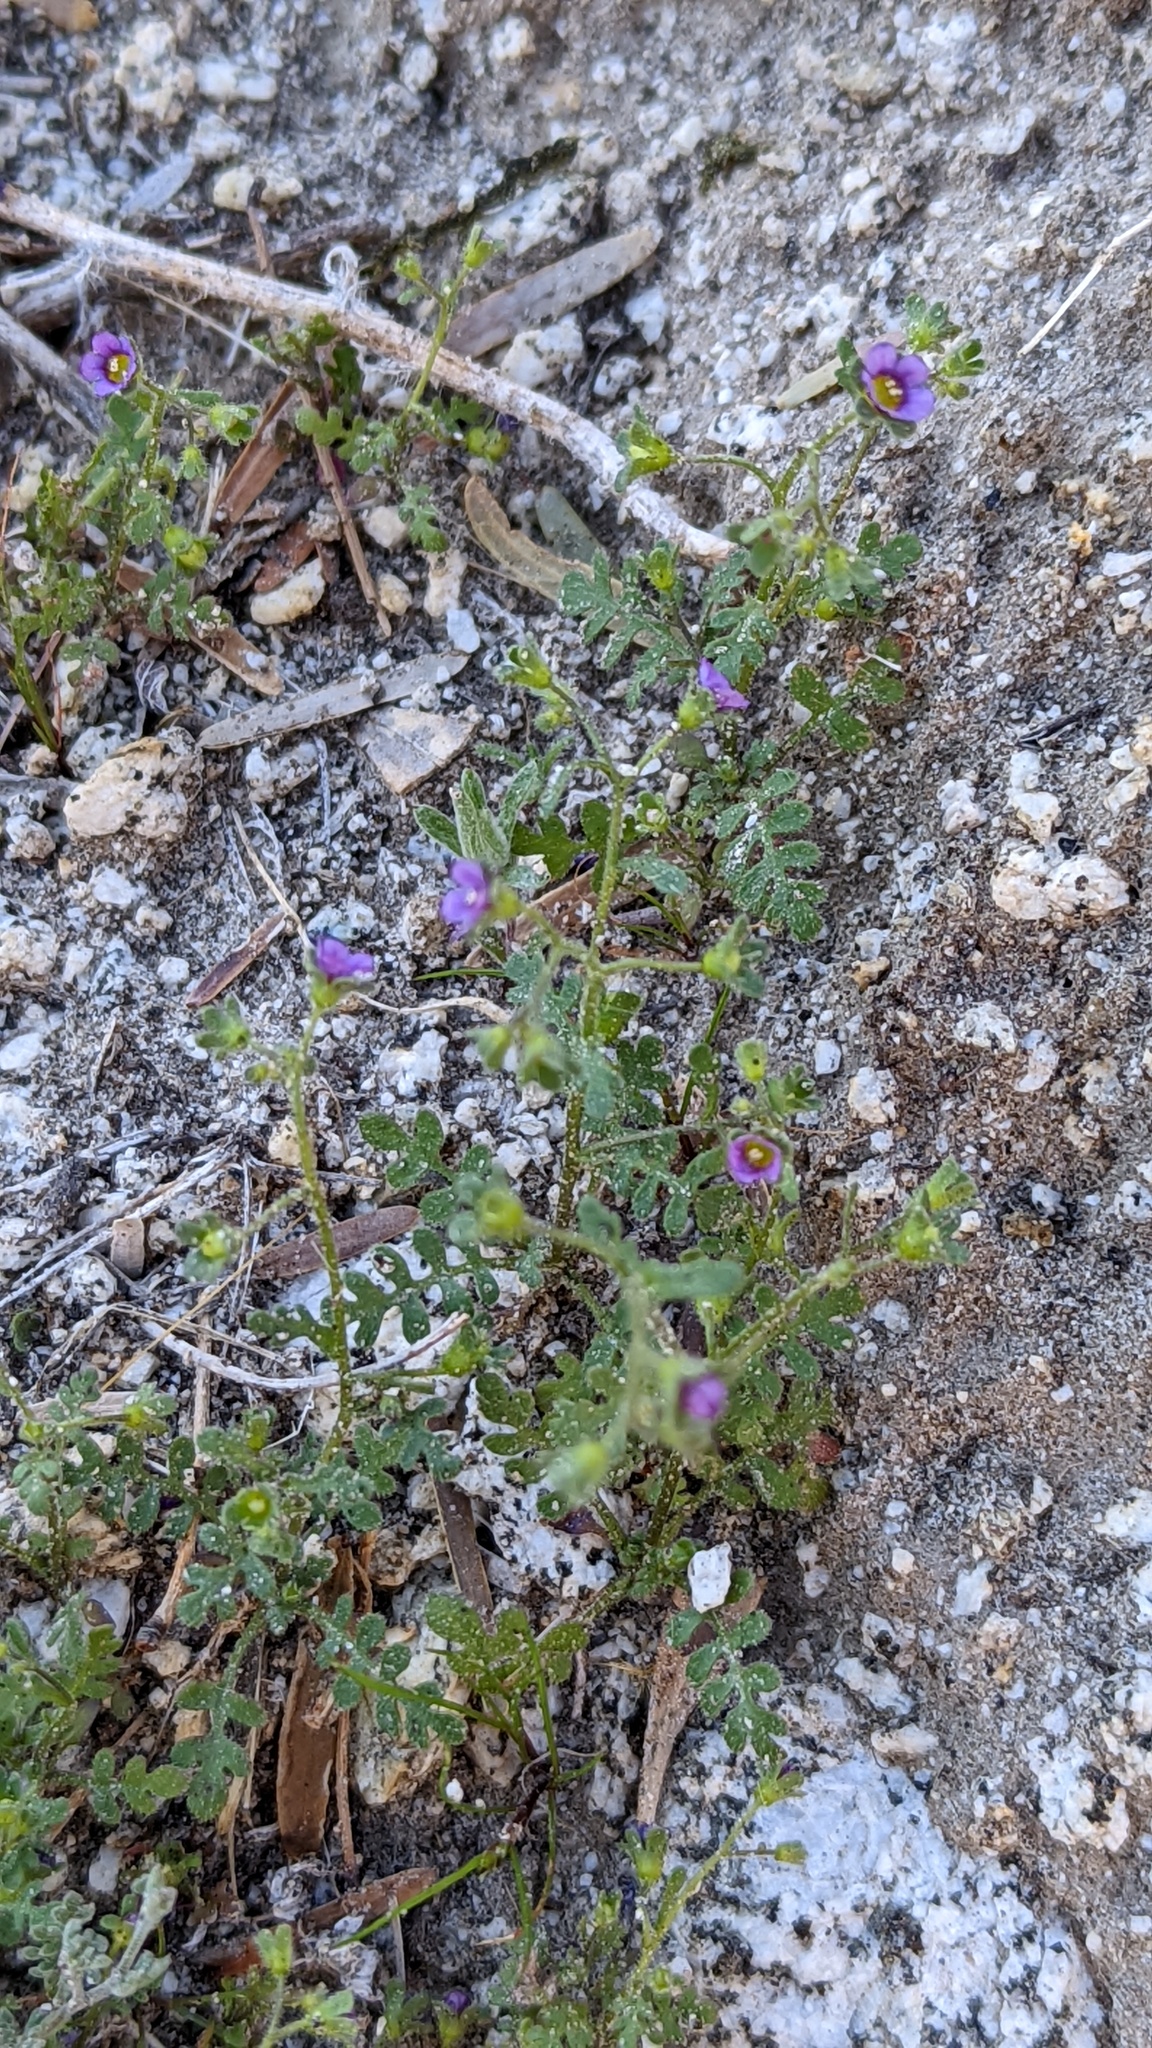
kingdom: Plantae
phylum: Tracheophyta
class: Magnoliopsida
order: Boraginales
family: Hydrophyllaceae
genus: Eucrypta
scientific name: Eucrypta micrantha
